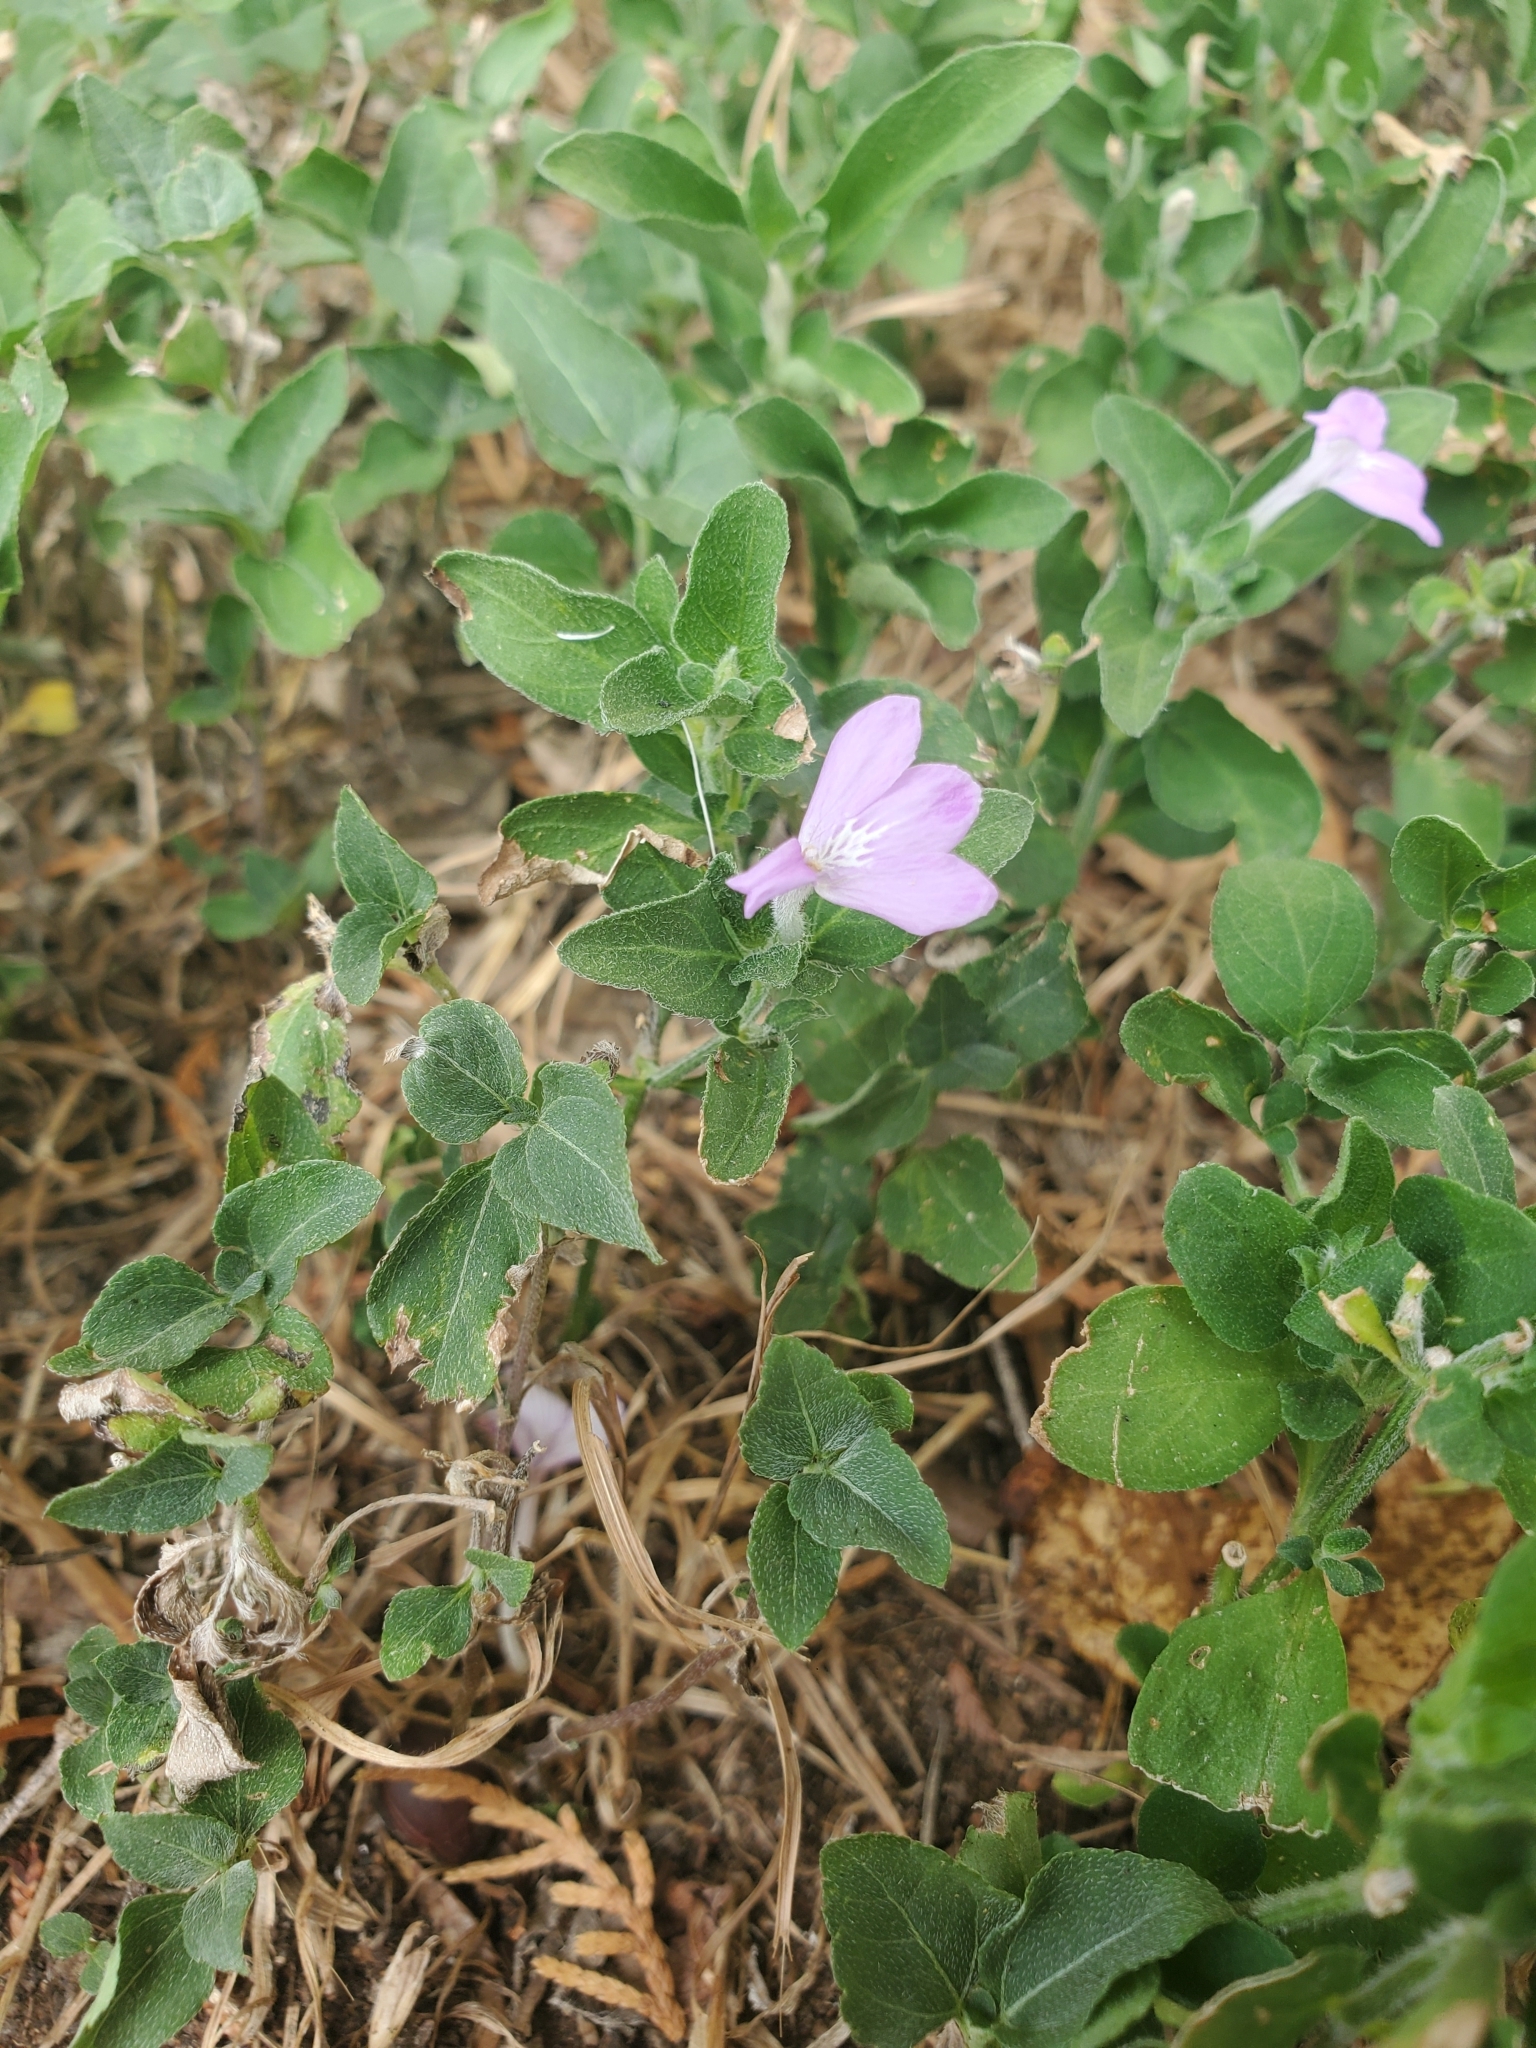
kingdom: Plantae
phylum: Tracheophyta
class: Magnoliopsida
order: Lamiales
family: Acanthaceae
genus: Justicia
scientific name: Justicia pilosella
